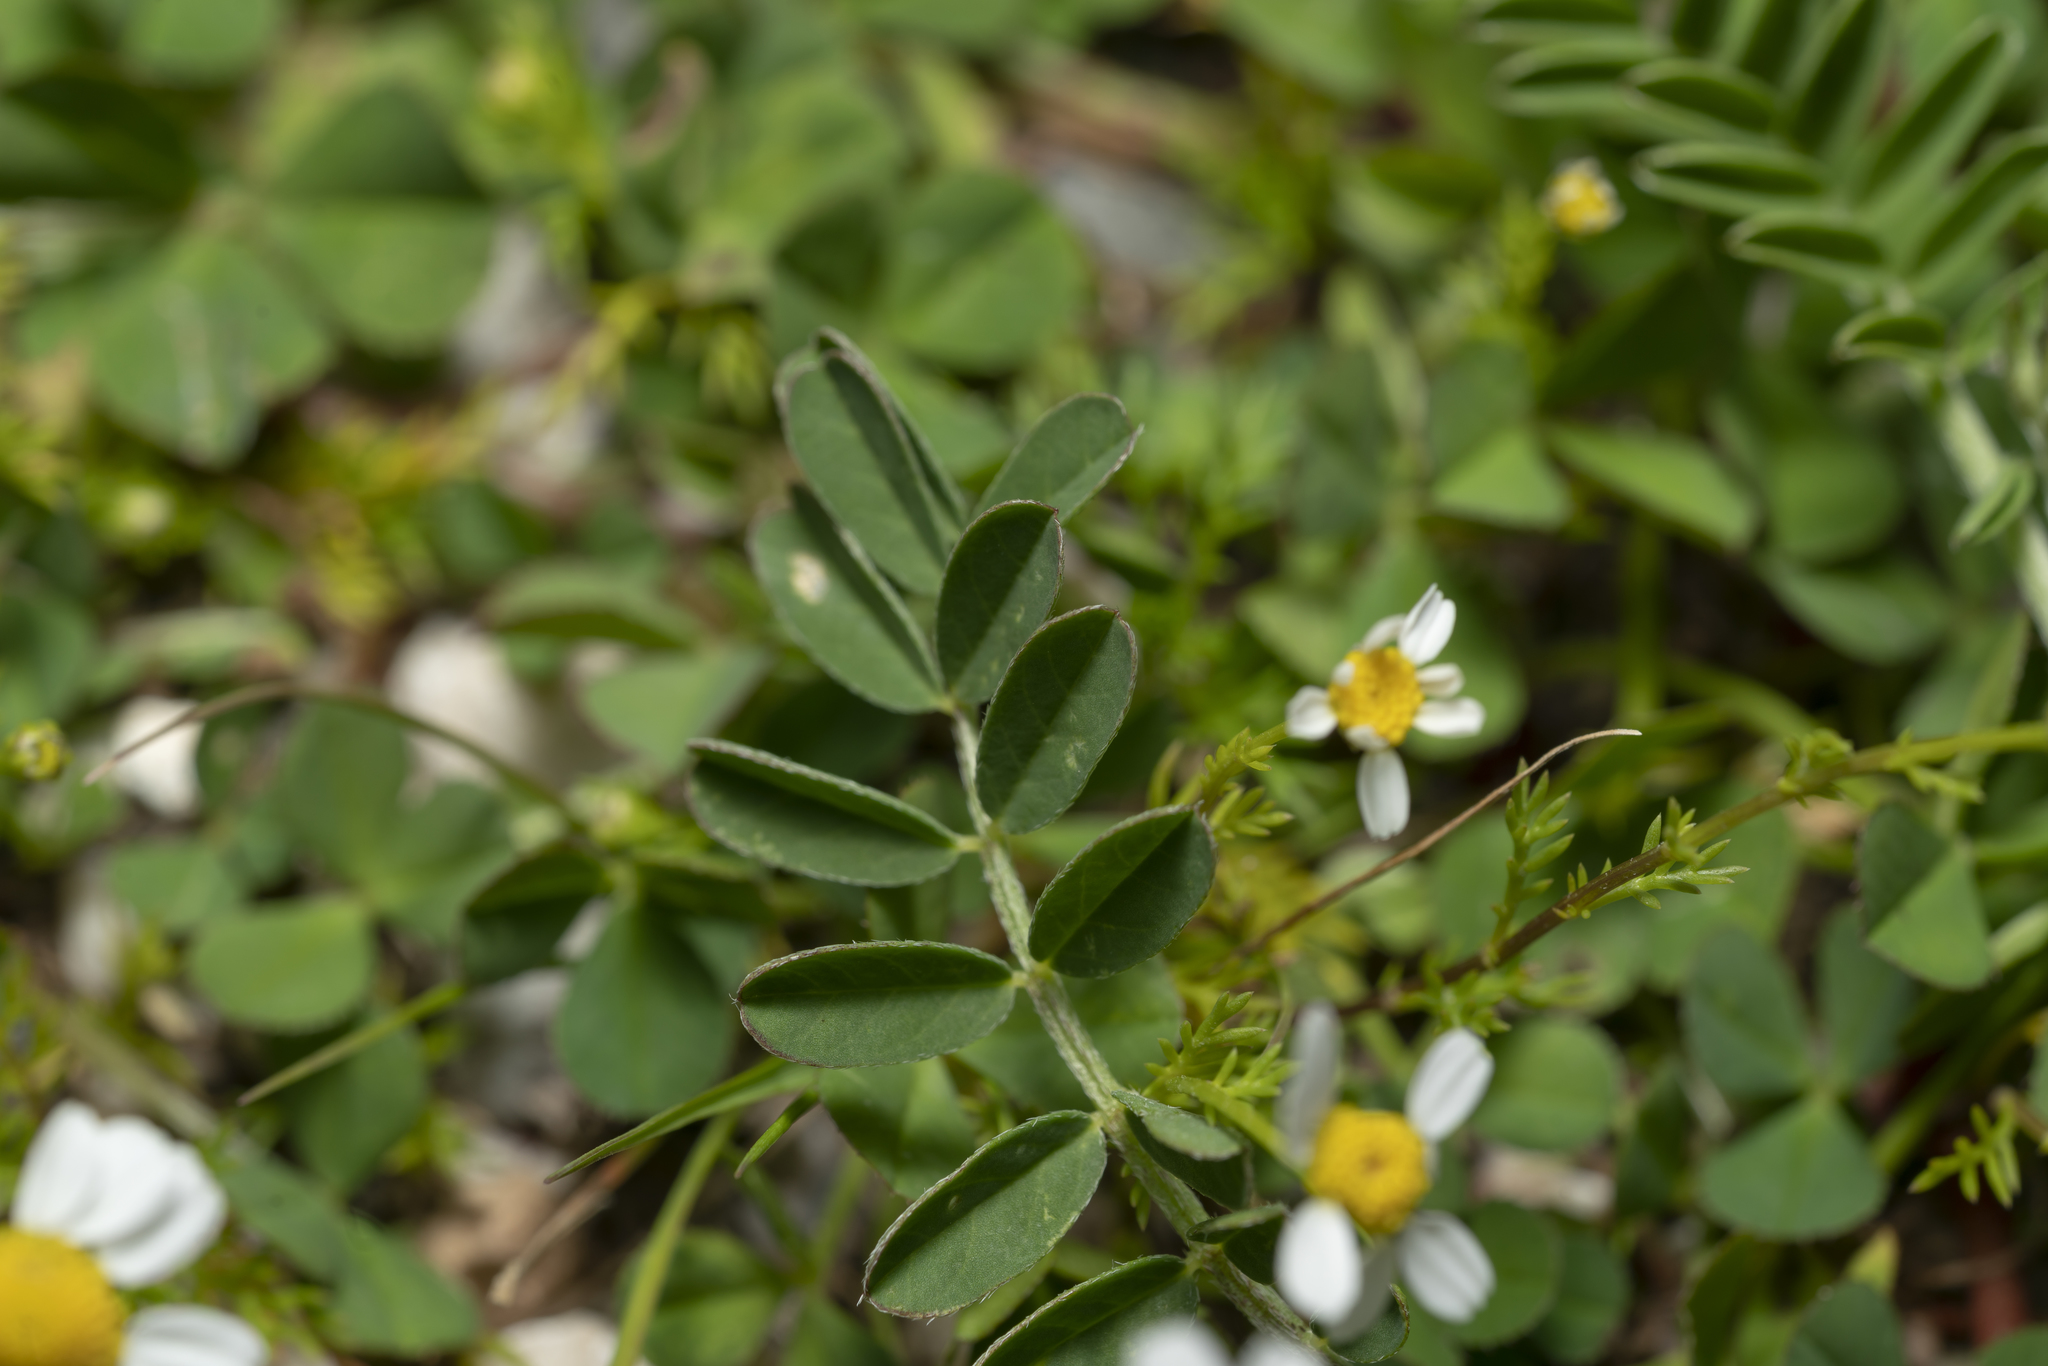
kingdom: Plantae
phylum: Tracheophyta
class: Magnoliopsida
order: Fabales
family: Fabaceae
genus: Astragalus
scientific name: Astragalus hamosus
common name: European milkvetch
